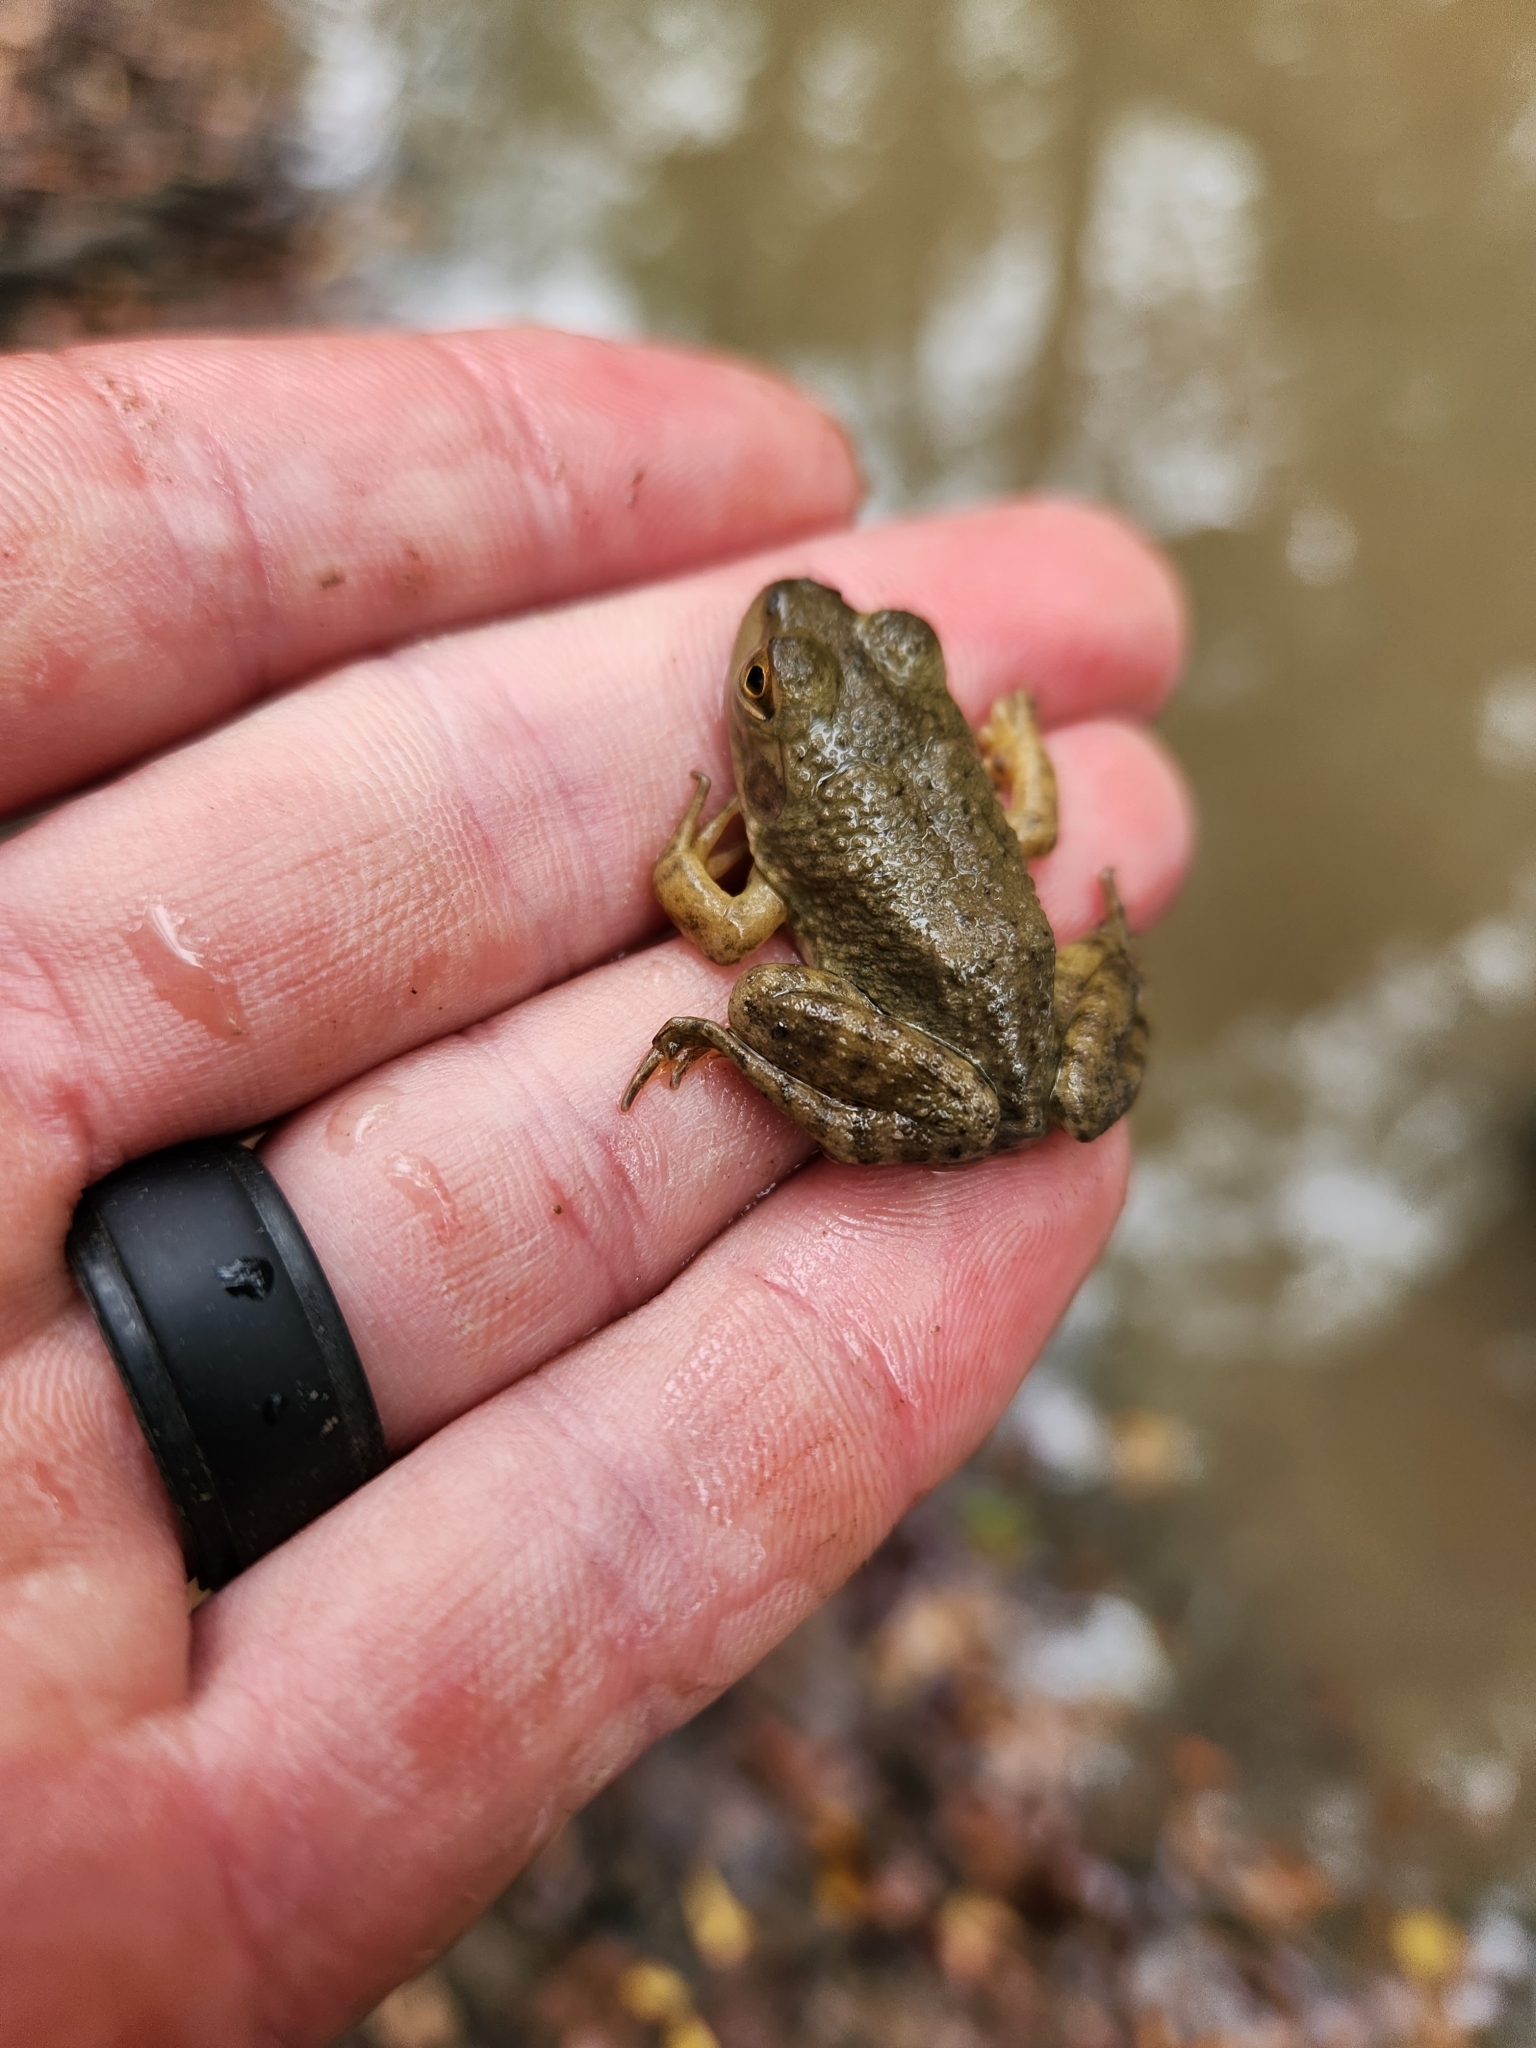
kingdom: Animalia
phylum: Chordata
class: Amphibia
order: Anura
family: Ranidae
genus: Lithobates
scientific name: Lithobates catesbeianus
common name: American bullfrog
